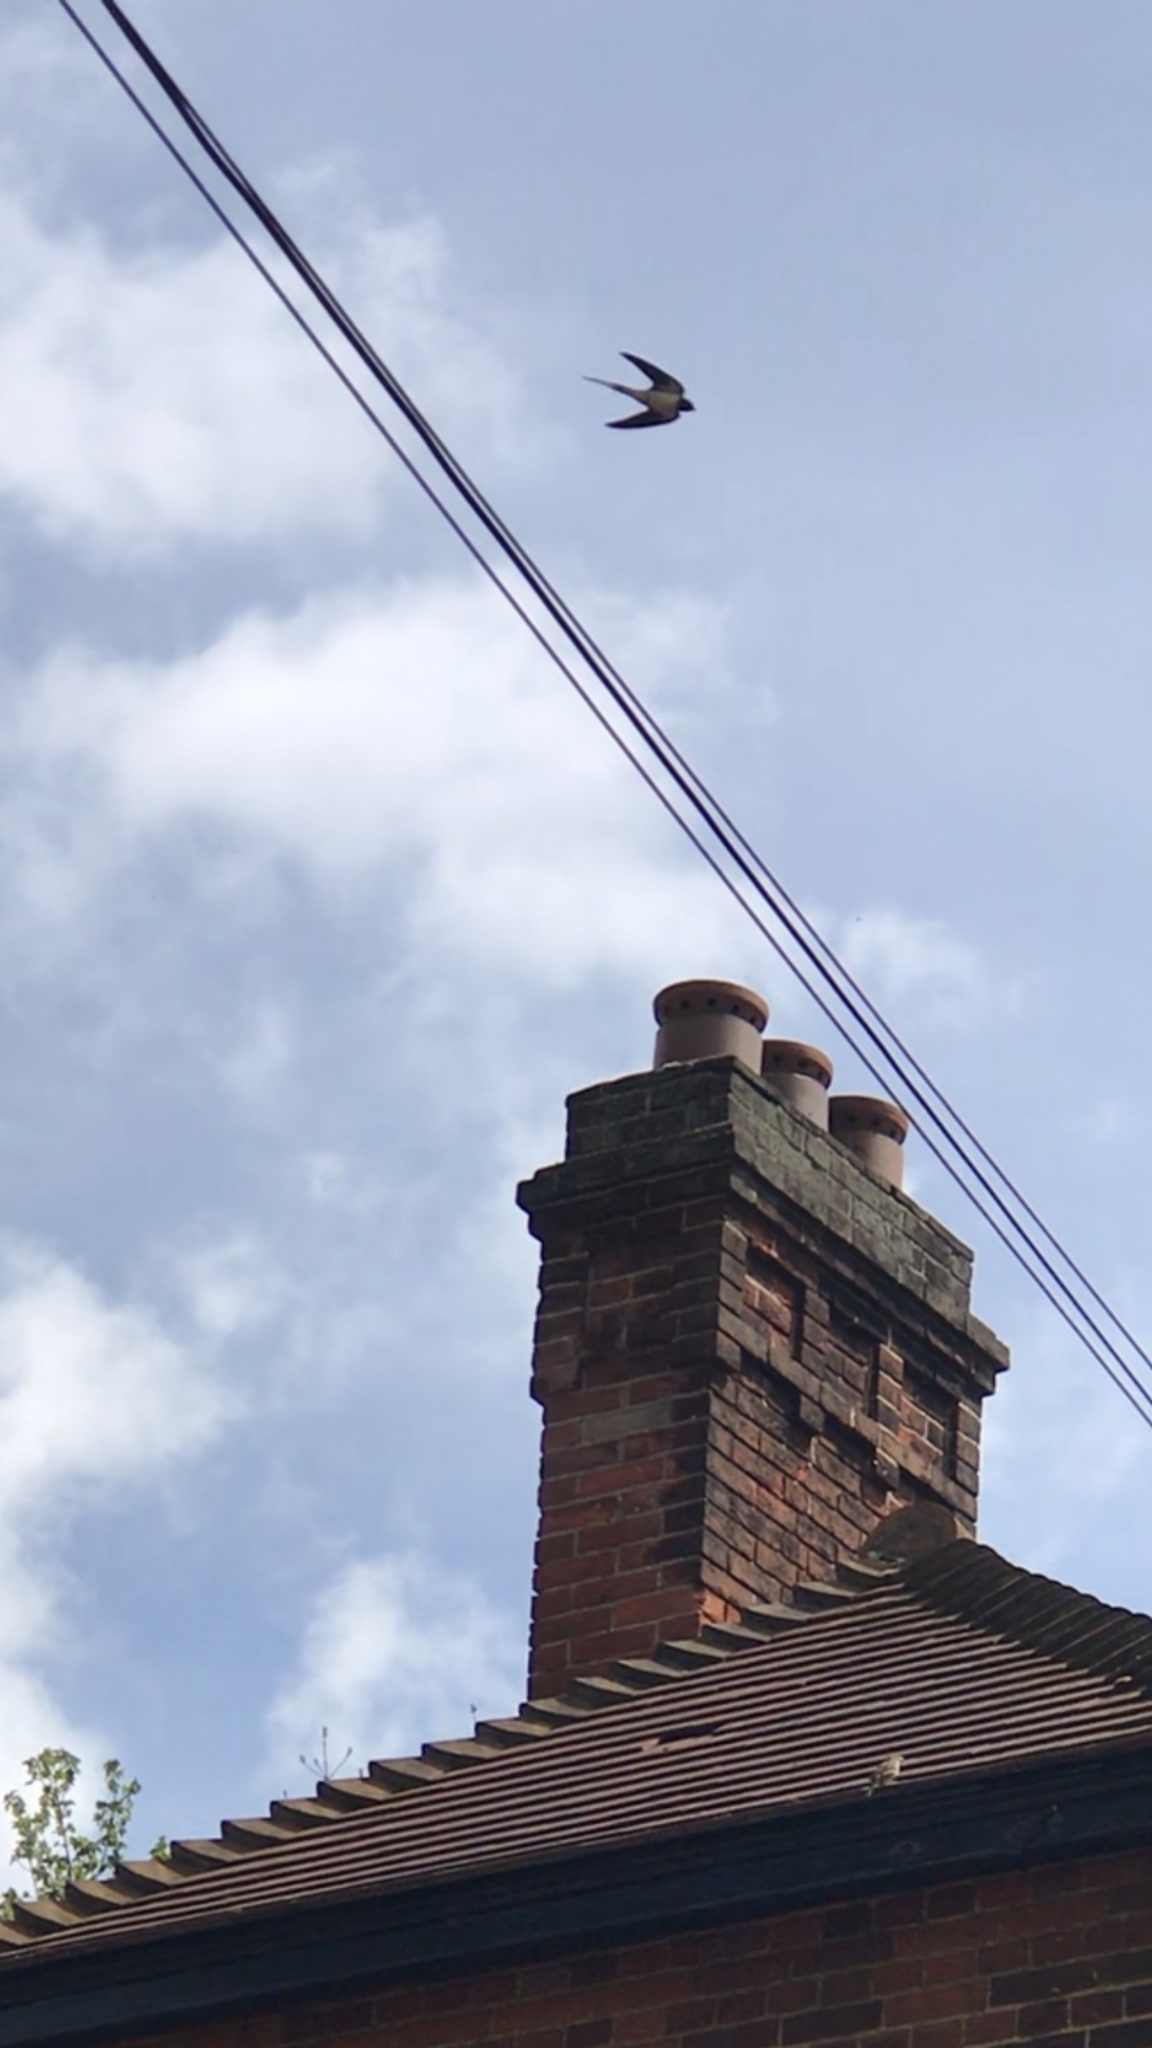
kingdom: Animalia
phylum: Chordata
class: Aves
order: Passeriformes
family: Hirundinidae
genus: Hirundo
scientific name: Hirundo rustica
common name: Barn swallow
